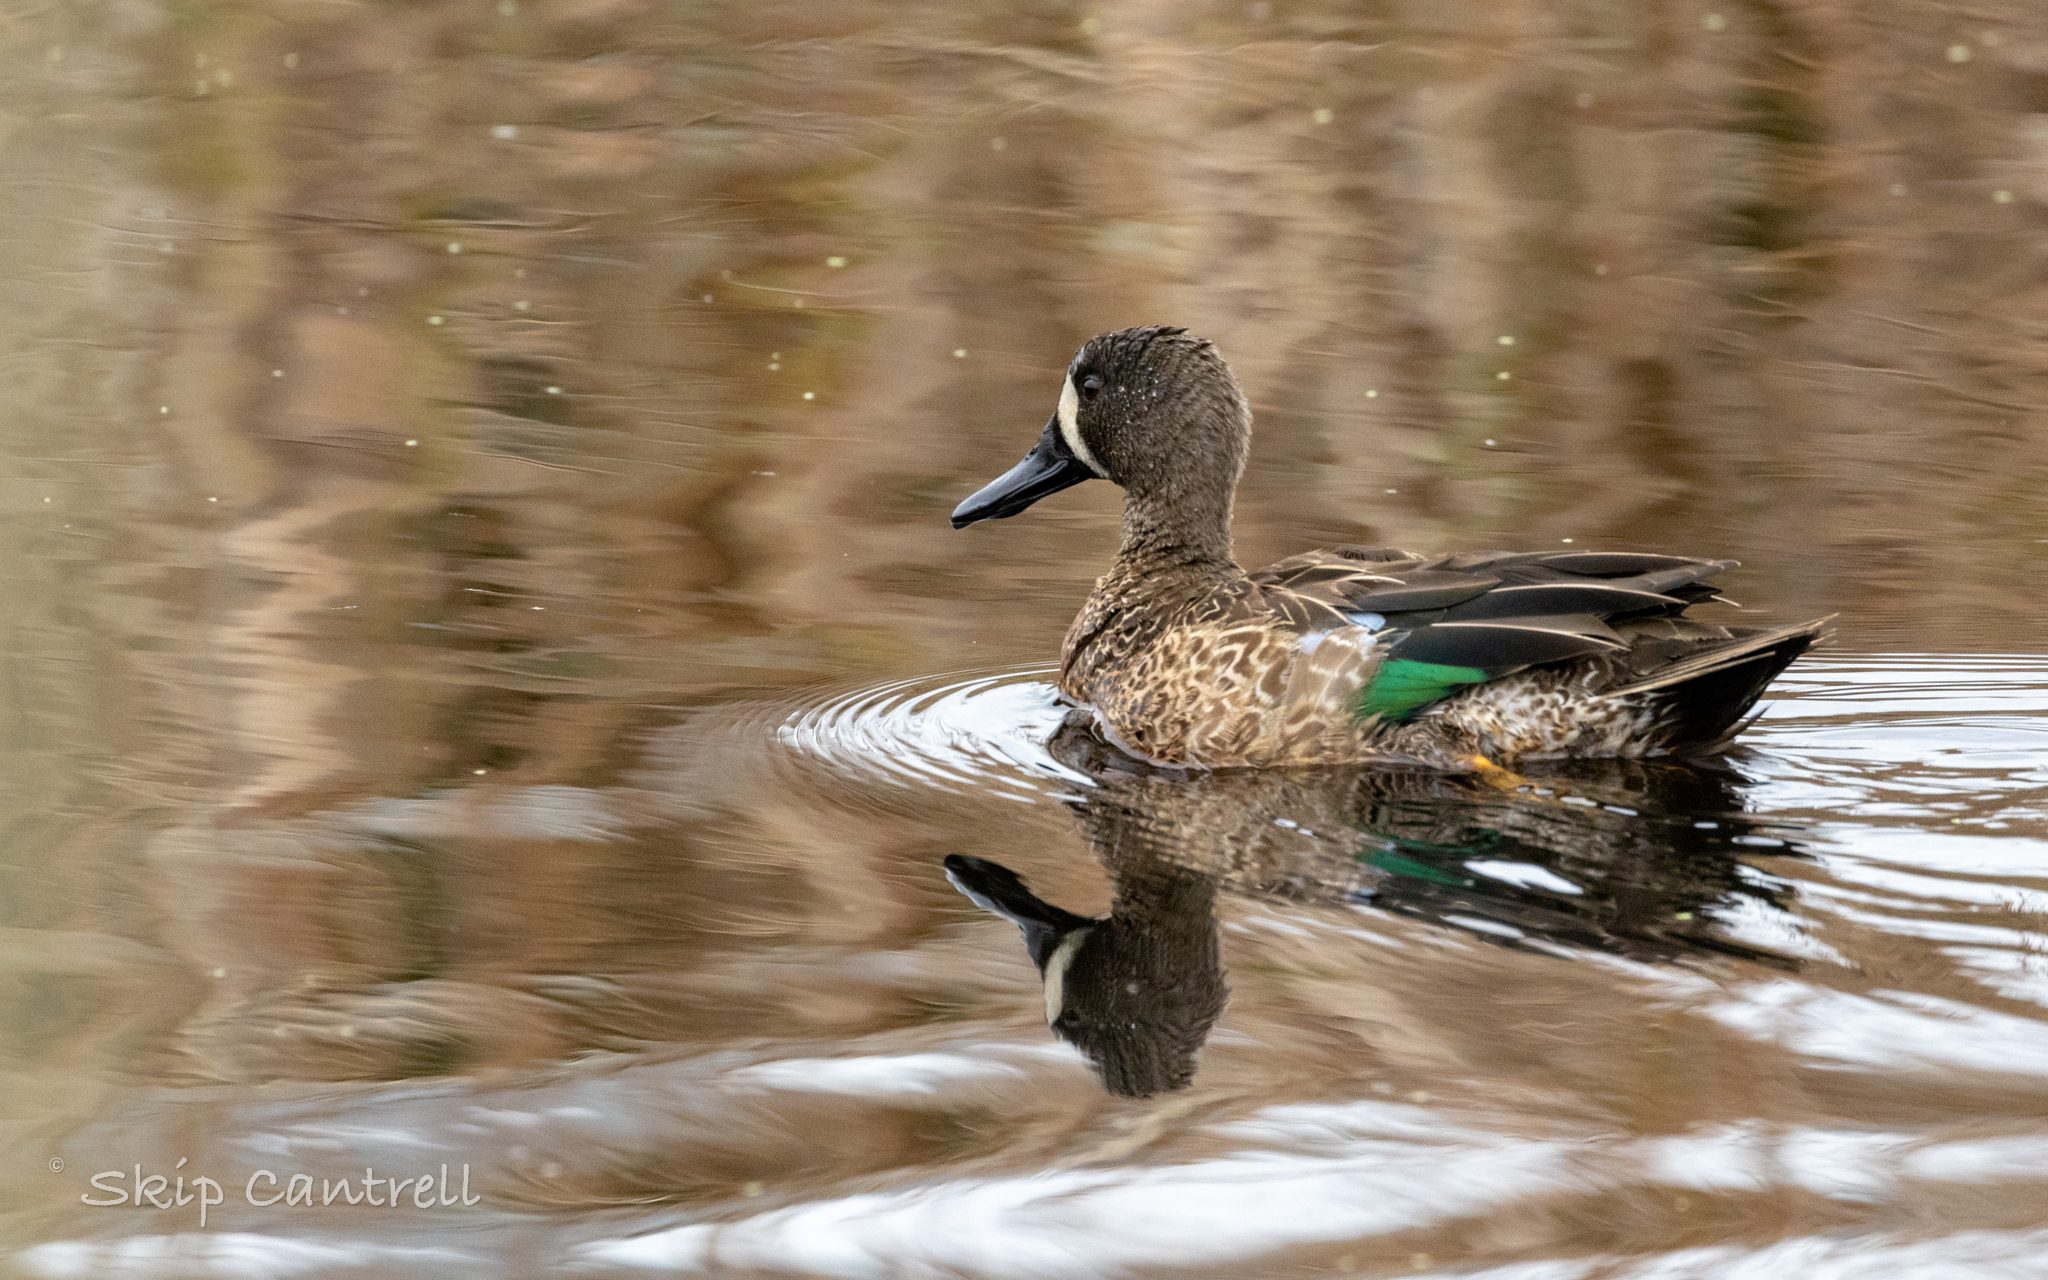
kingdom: Animalia
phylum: Chordata
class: Aves
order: Anseriformes
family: Anatidae
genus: Spatula
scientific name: Spatula discors
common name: Blue-winged teal
